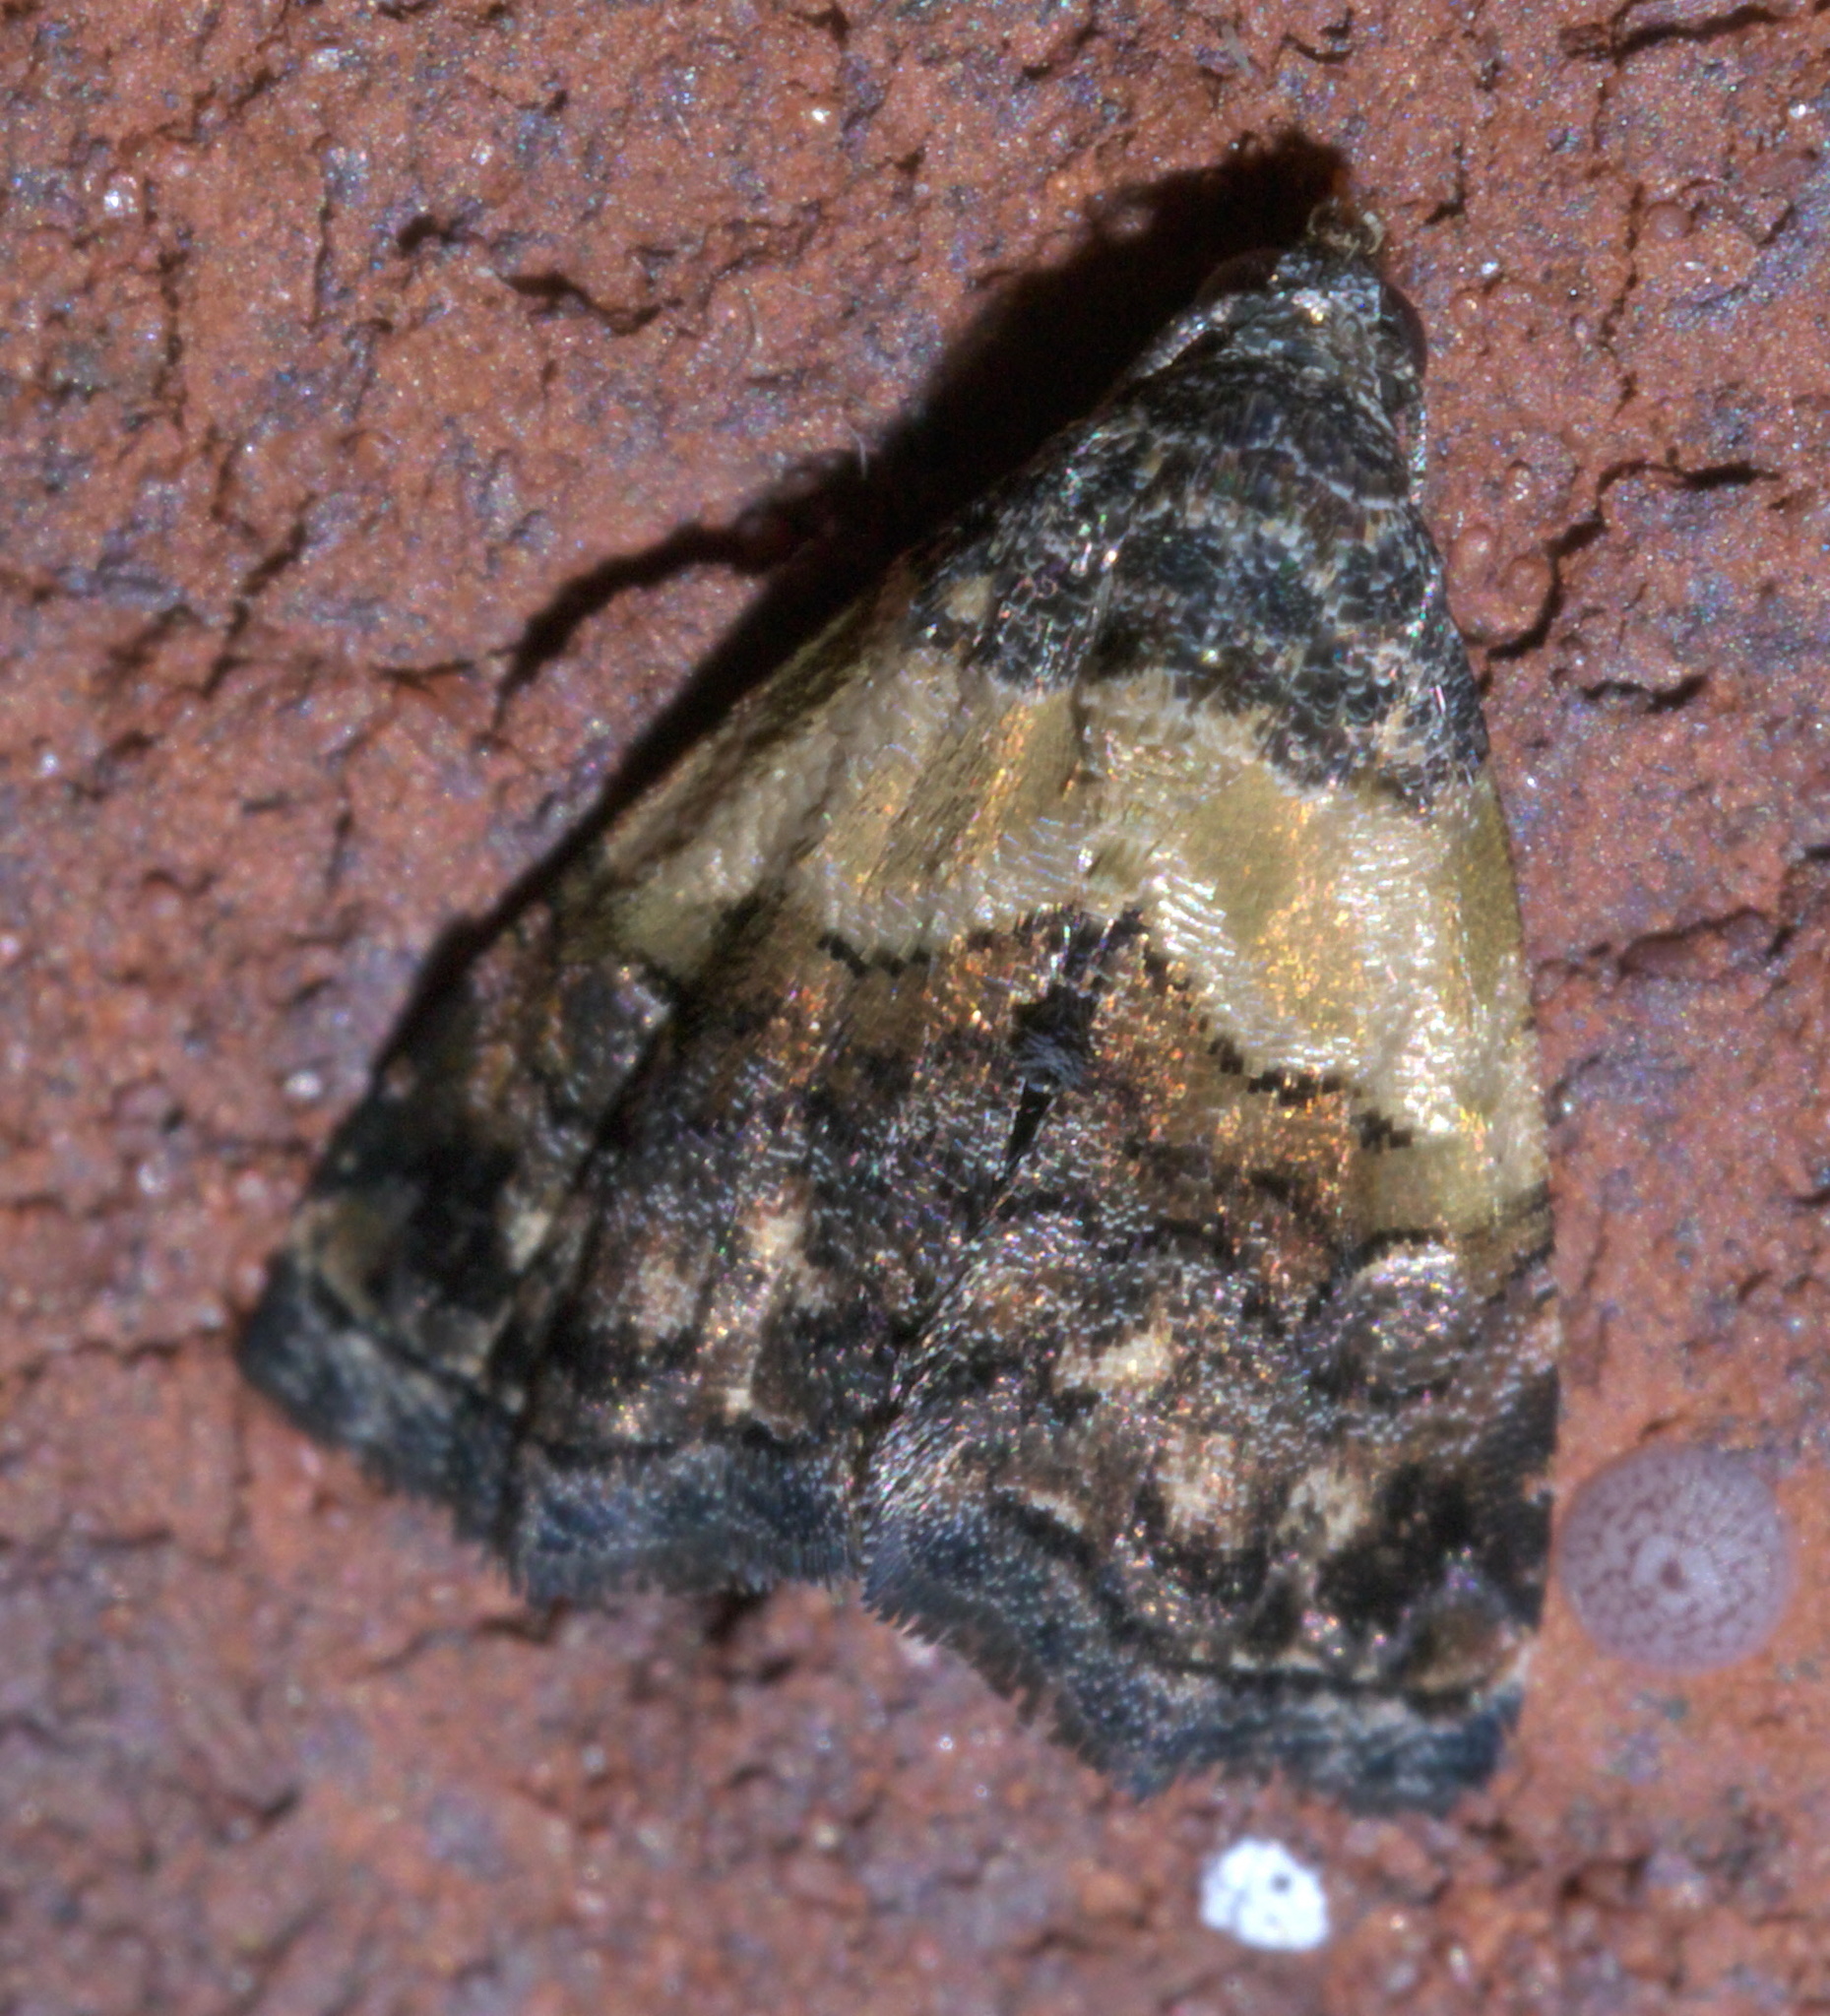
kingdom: Animalia
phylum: Arthropoda
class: Insecta
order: Lepidoptera
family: Noctuidae
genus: Tripudia
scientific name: Tripudia balteata
